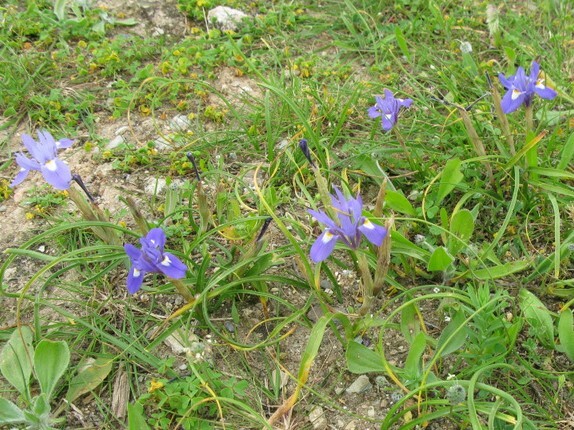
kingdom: Plantae
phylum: Tracheophyta
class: Liliopsida
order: Asparagales
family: Iridaceae
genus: Moraea
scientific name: Moraea sisyrinchium
